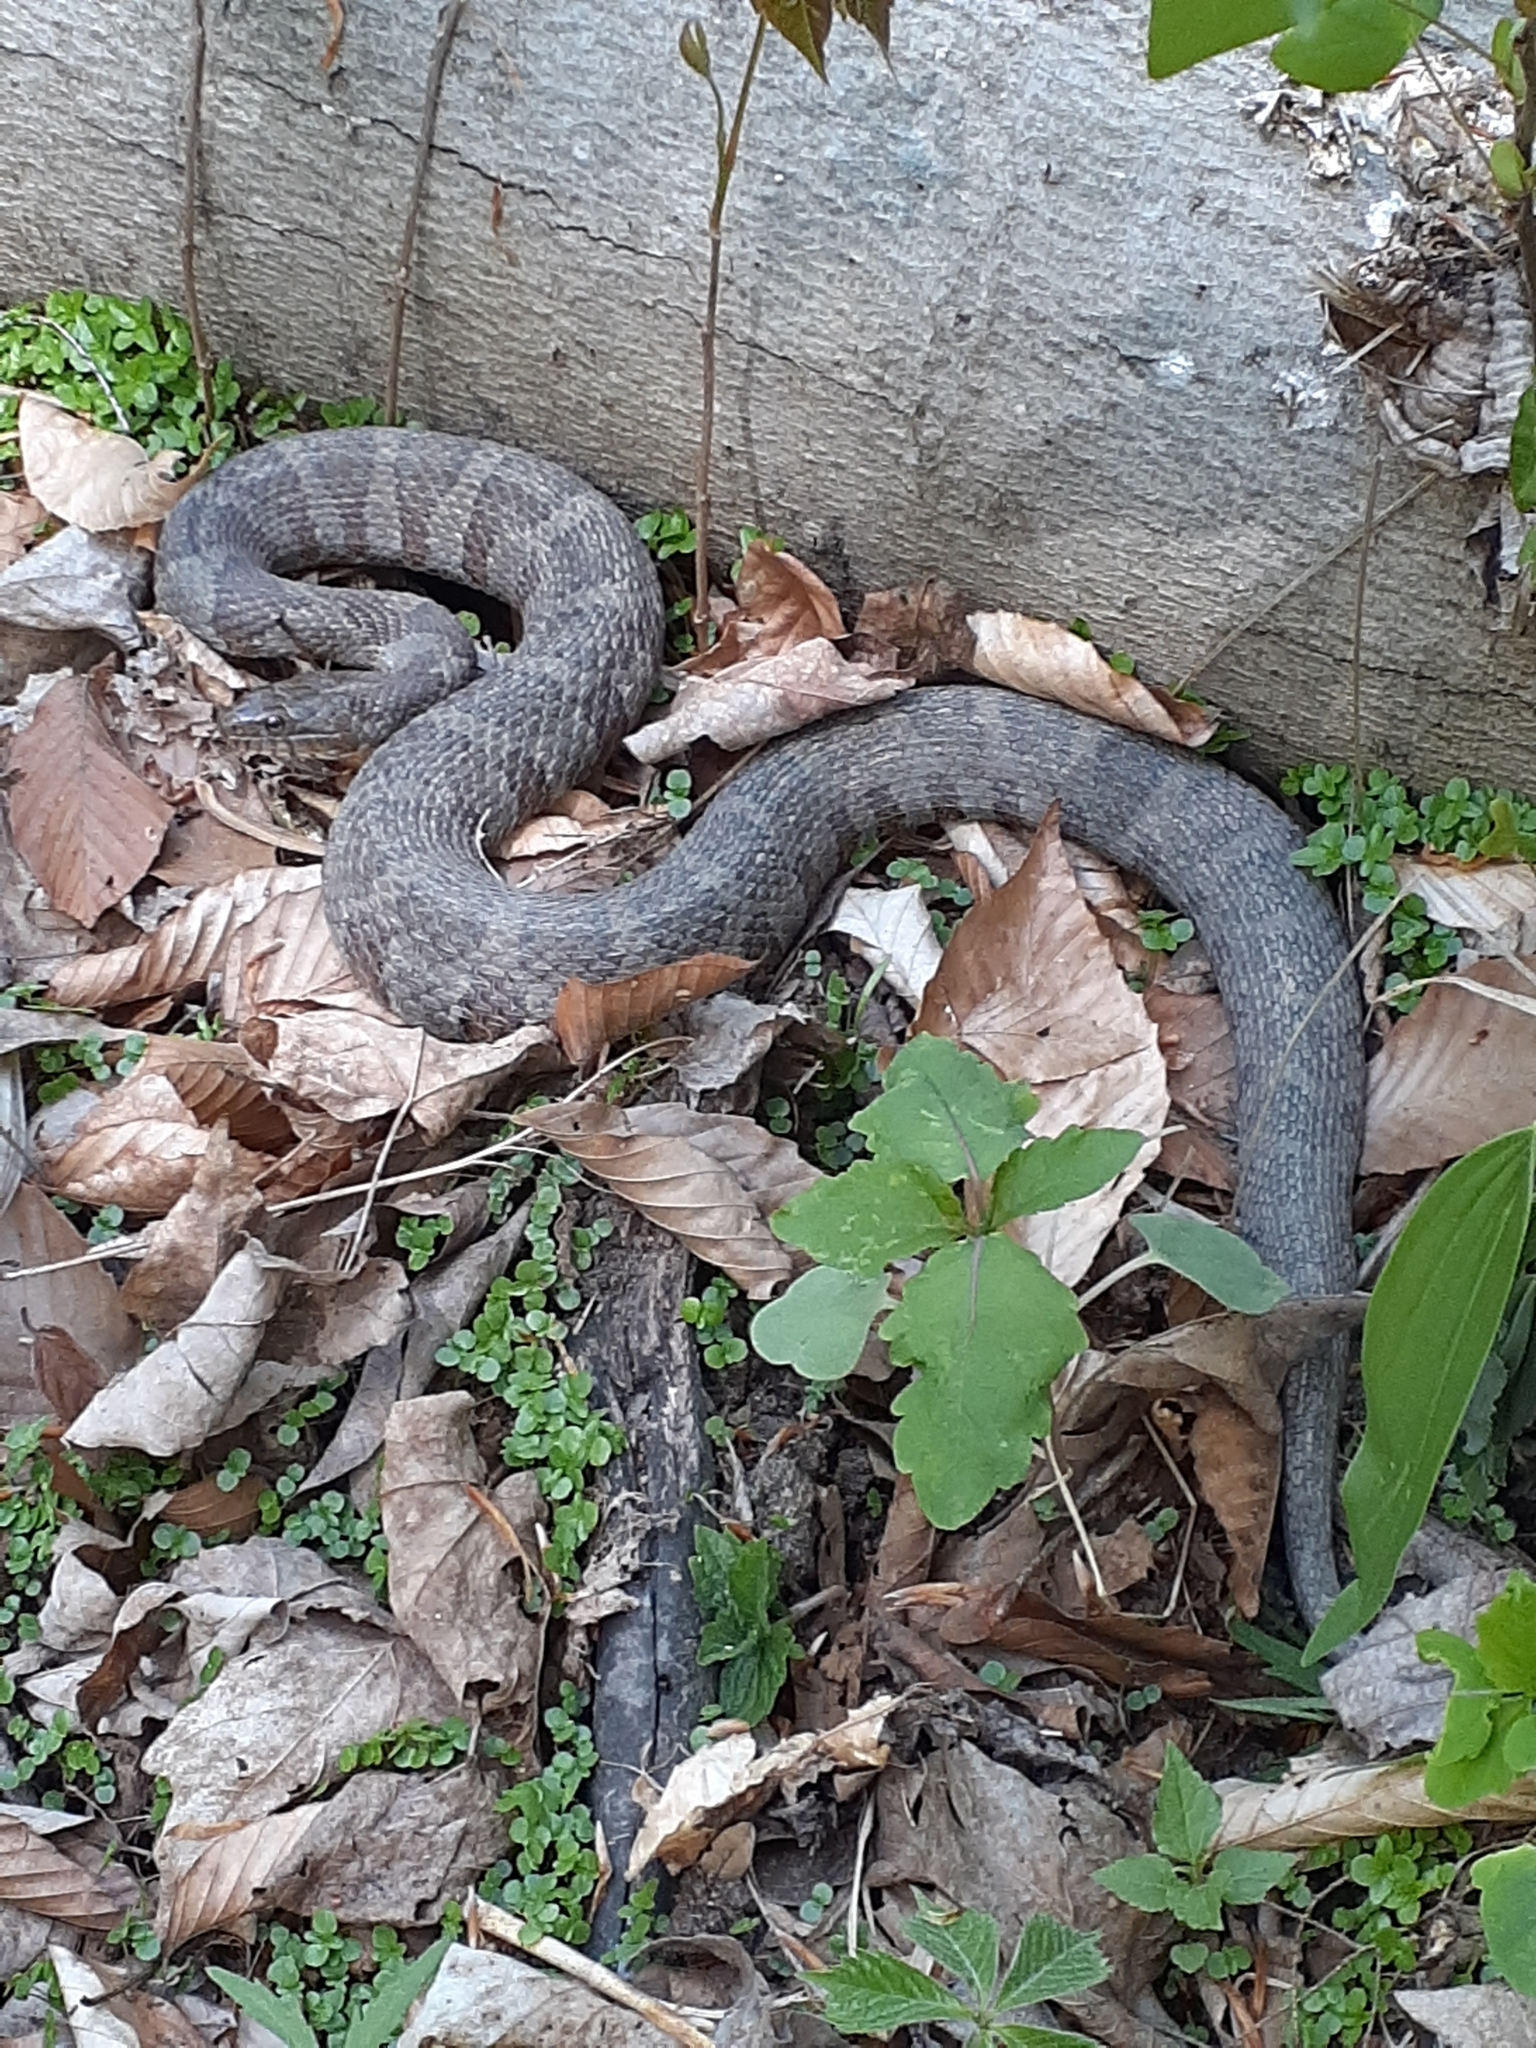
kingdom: Animalia
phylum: Chordata
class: Squamata
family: Colubridae
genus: Nerodia
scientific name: Nerodia sipedon
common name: Northern water snake
